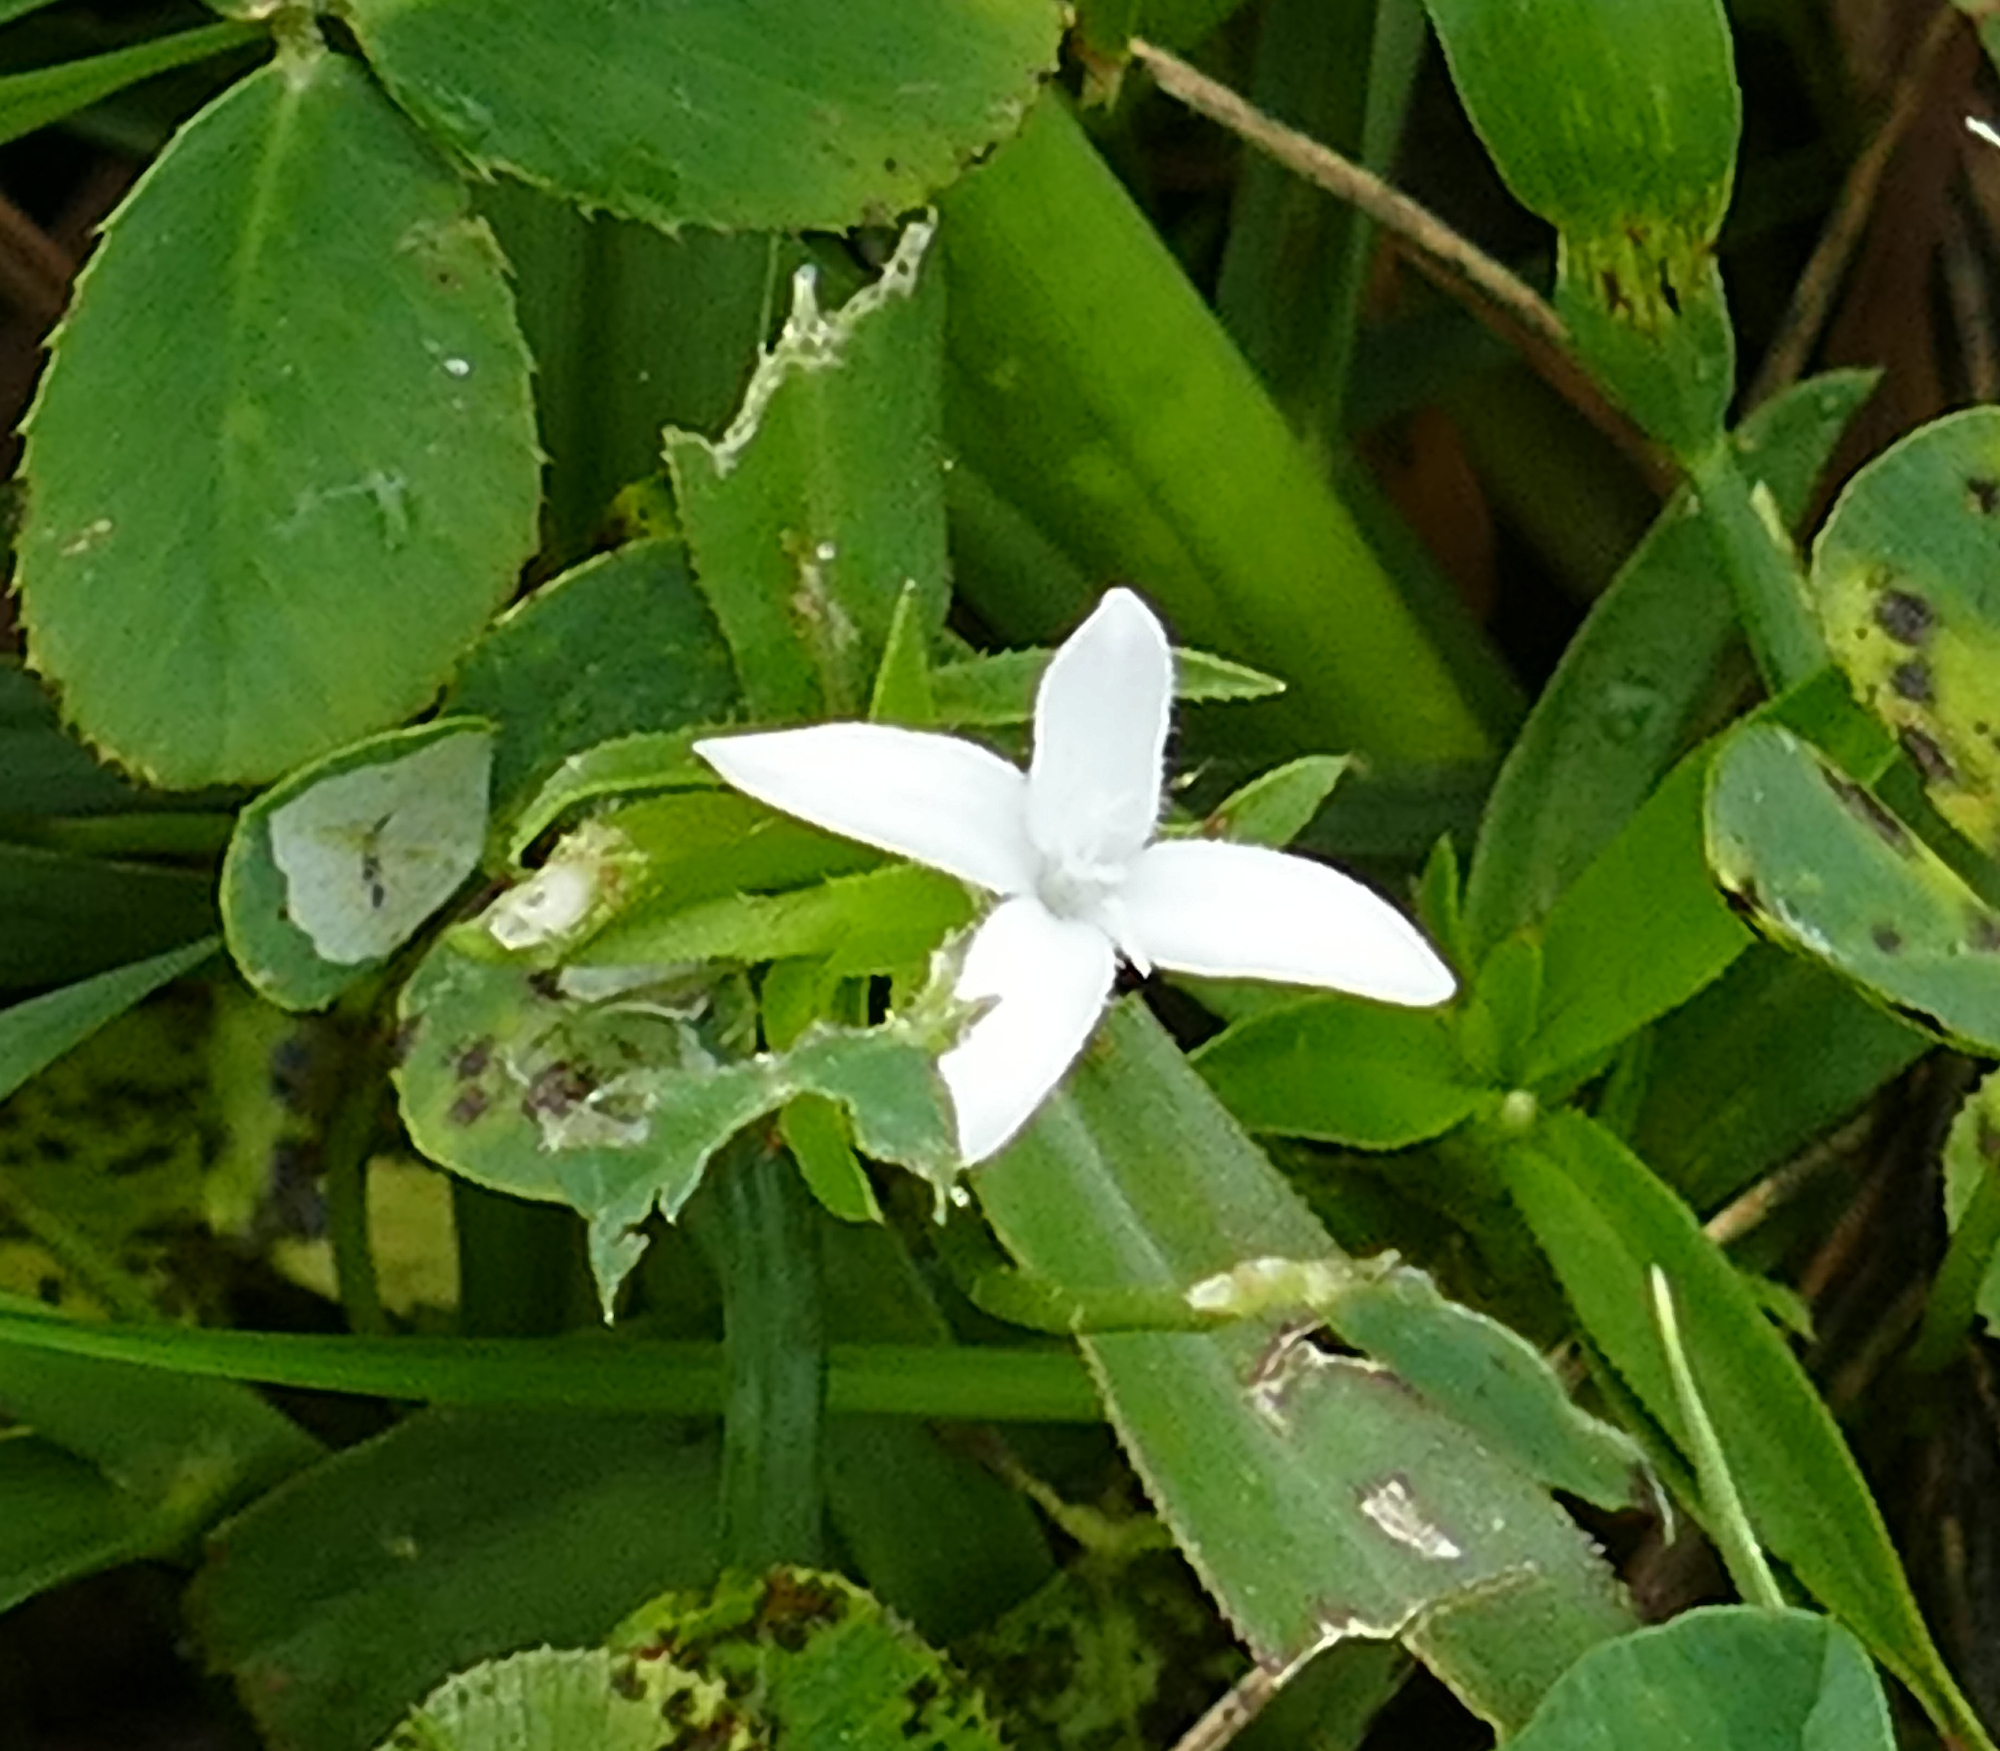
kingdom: Plantae
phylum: Tracheophyta
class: Magnoliopsida
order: Gentianales
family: Rubiaceae
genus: Diodia
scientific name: Diodia virginiana
